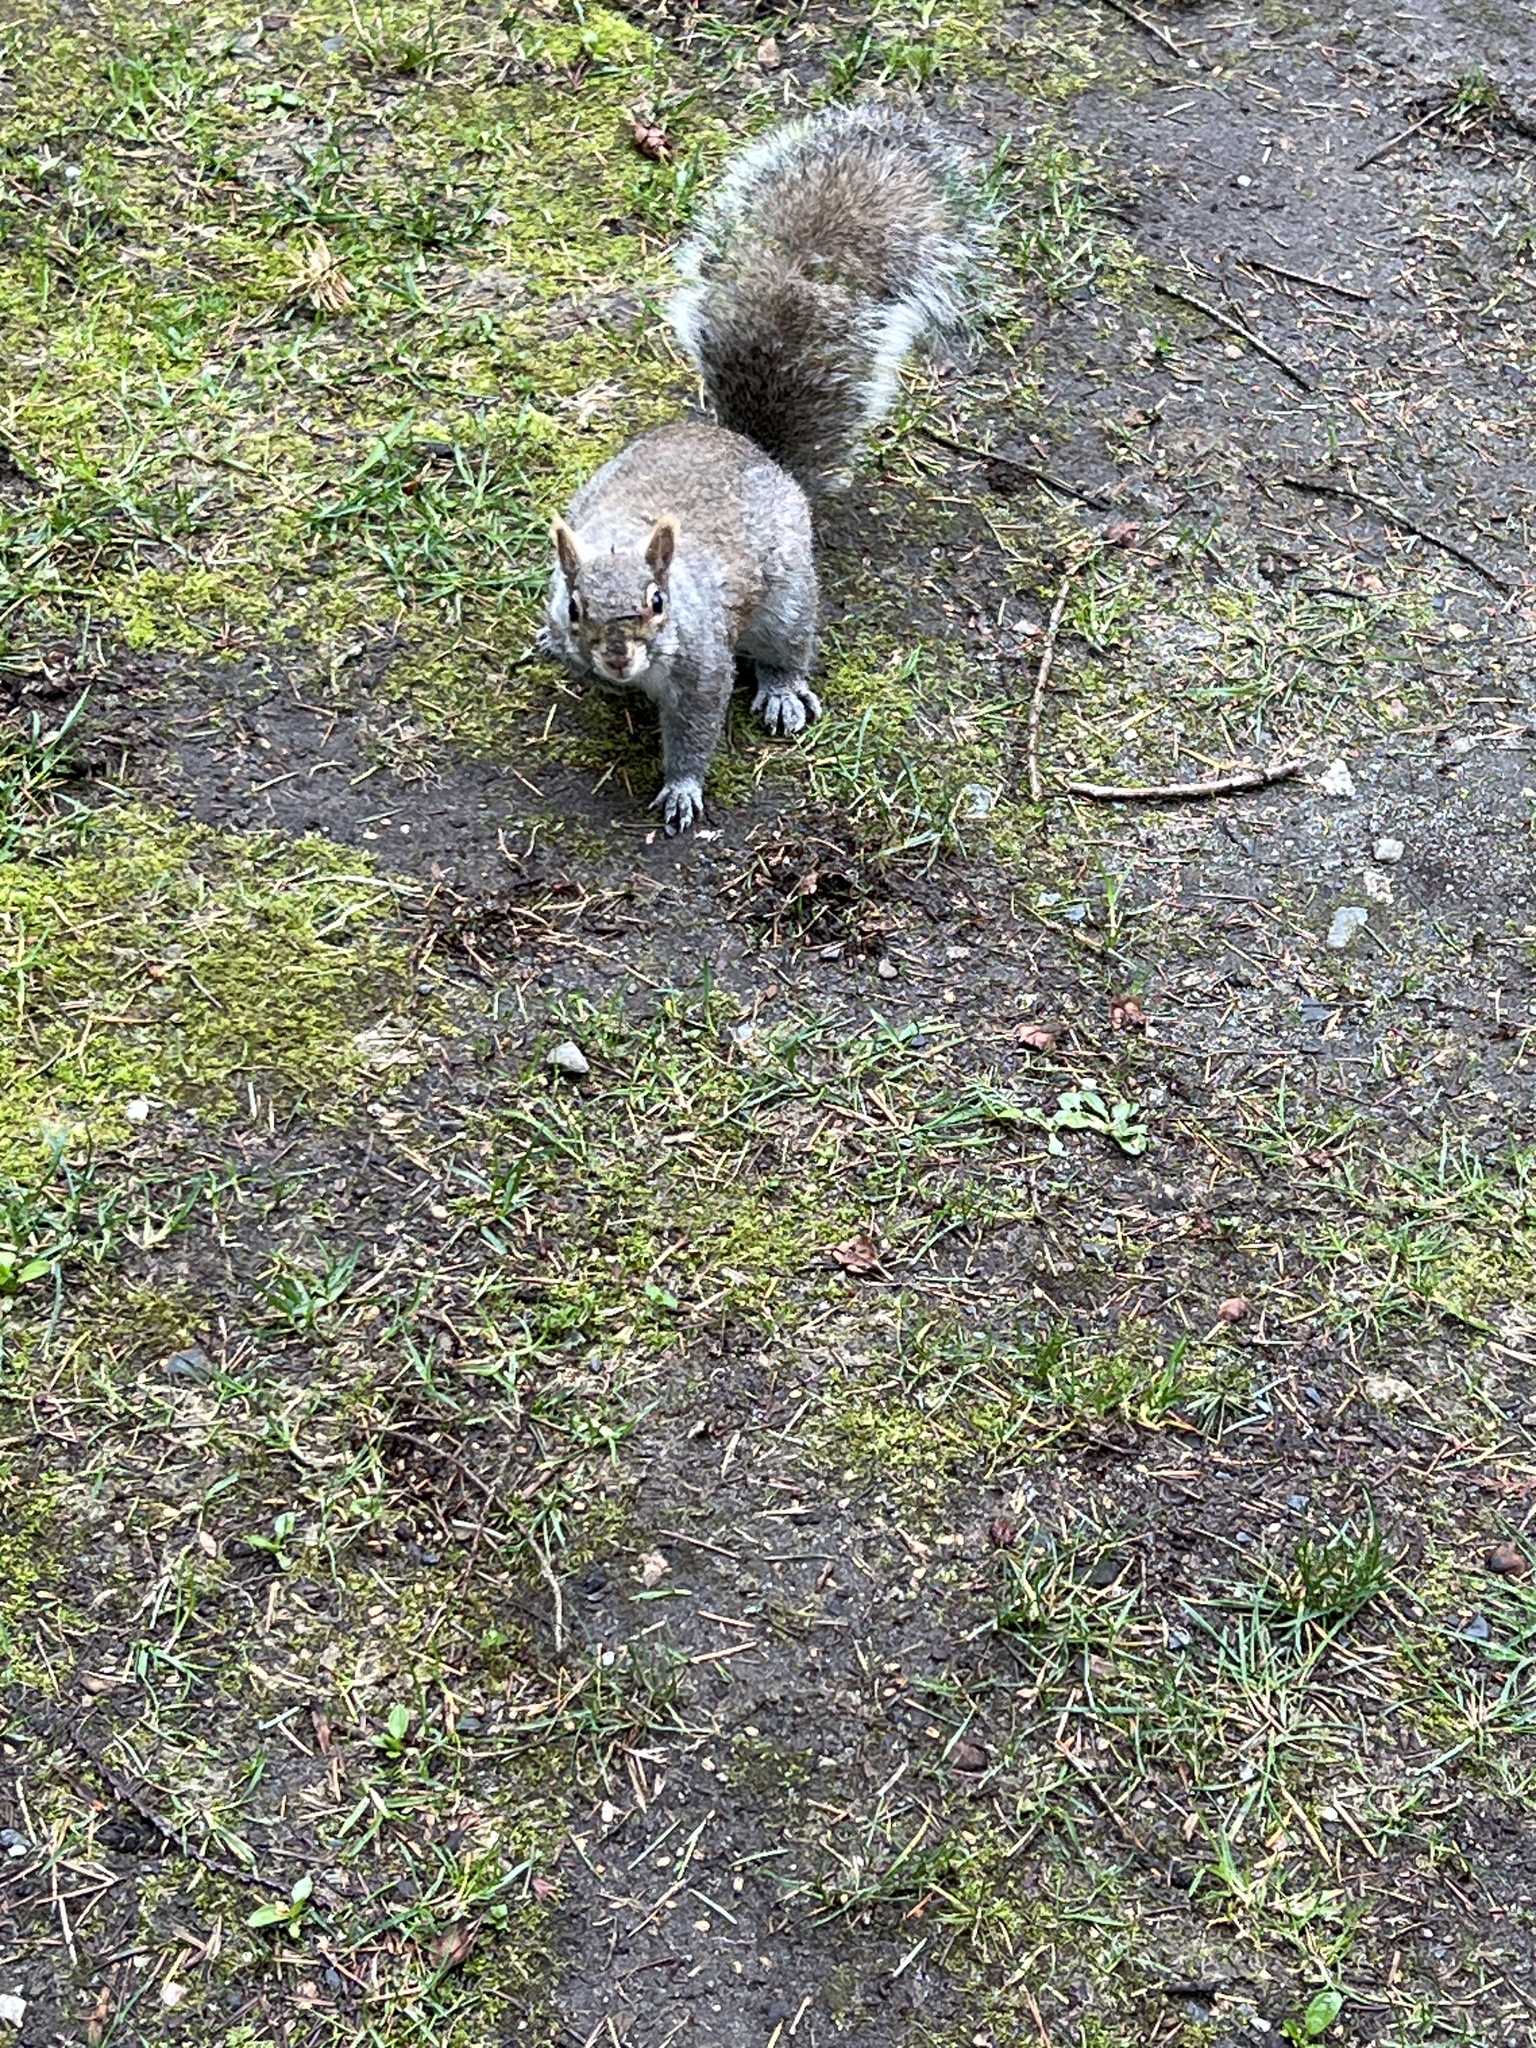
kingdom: Animalia
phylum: Chordata
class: Mammalia
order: Rodentia
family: Sciuridae
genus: Sciurus
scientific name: Sciurus carolinensis
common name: Eastern gray squirrel
